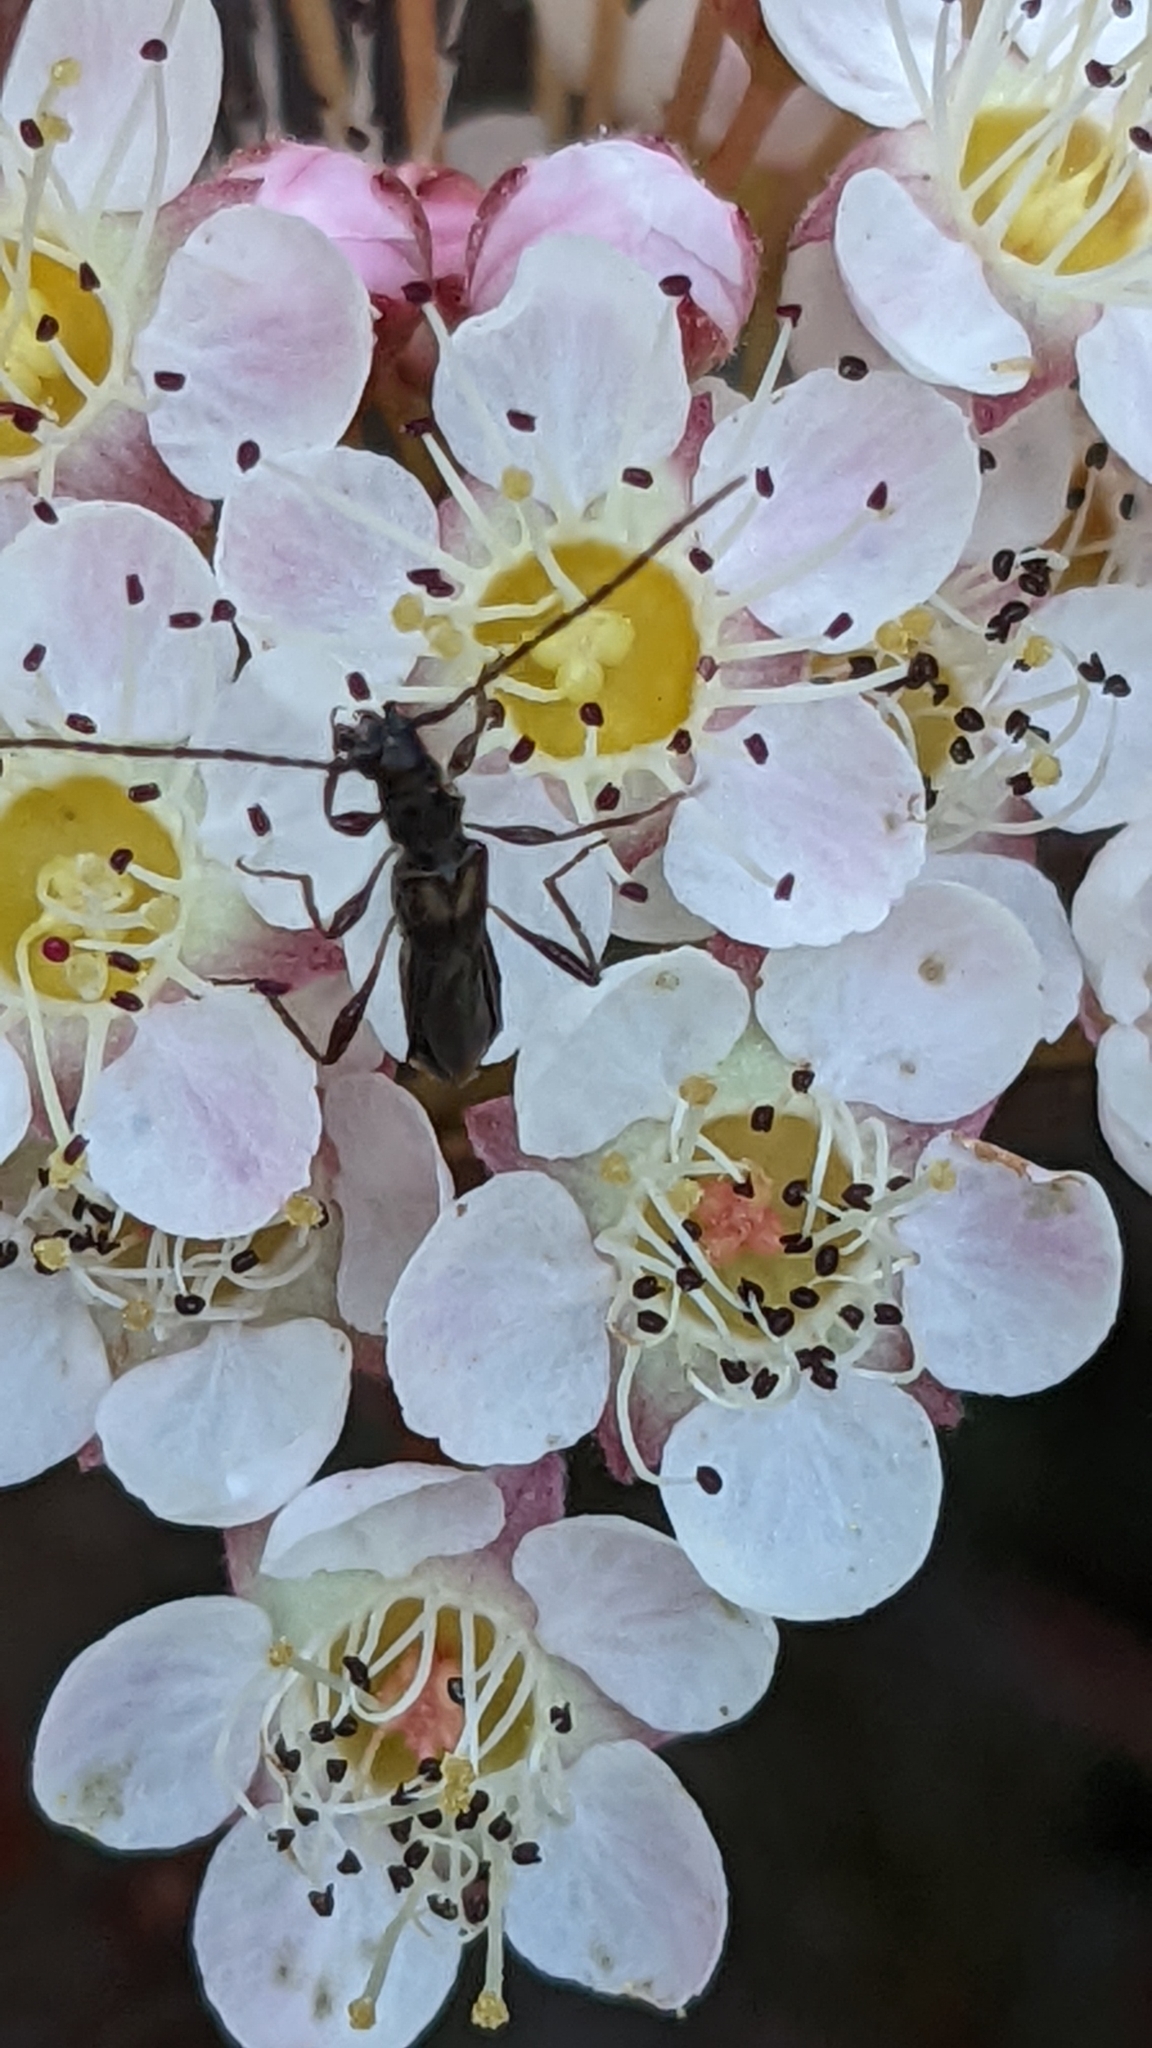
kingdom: Animalia
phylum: Arthropoda
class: Insecta
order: Coleoptera
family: Cerambycidae
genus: Molorchus
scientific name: Molorchus umbellatarum
